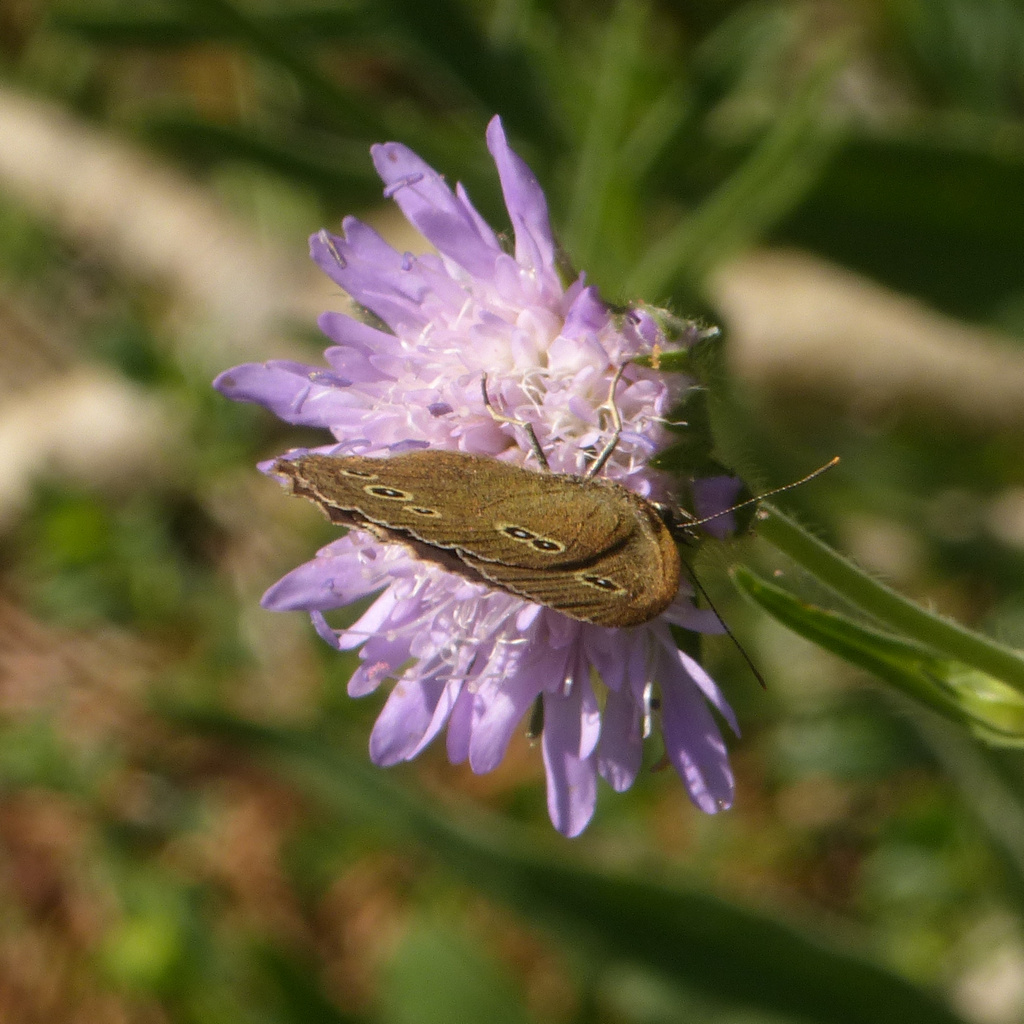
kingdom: Animalia
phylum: Arthropoda
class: Insecta
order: Lepidoptera
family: Nymphalidae
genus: Aphantopus
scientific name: Aphantopus hyperantus
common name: Ringlet
